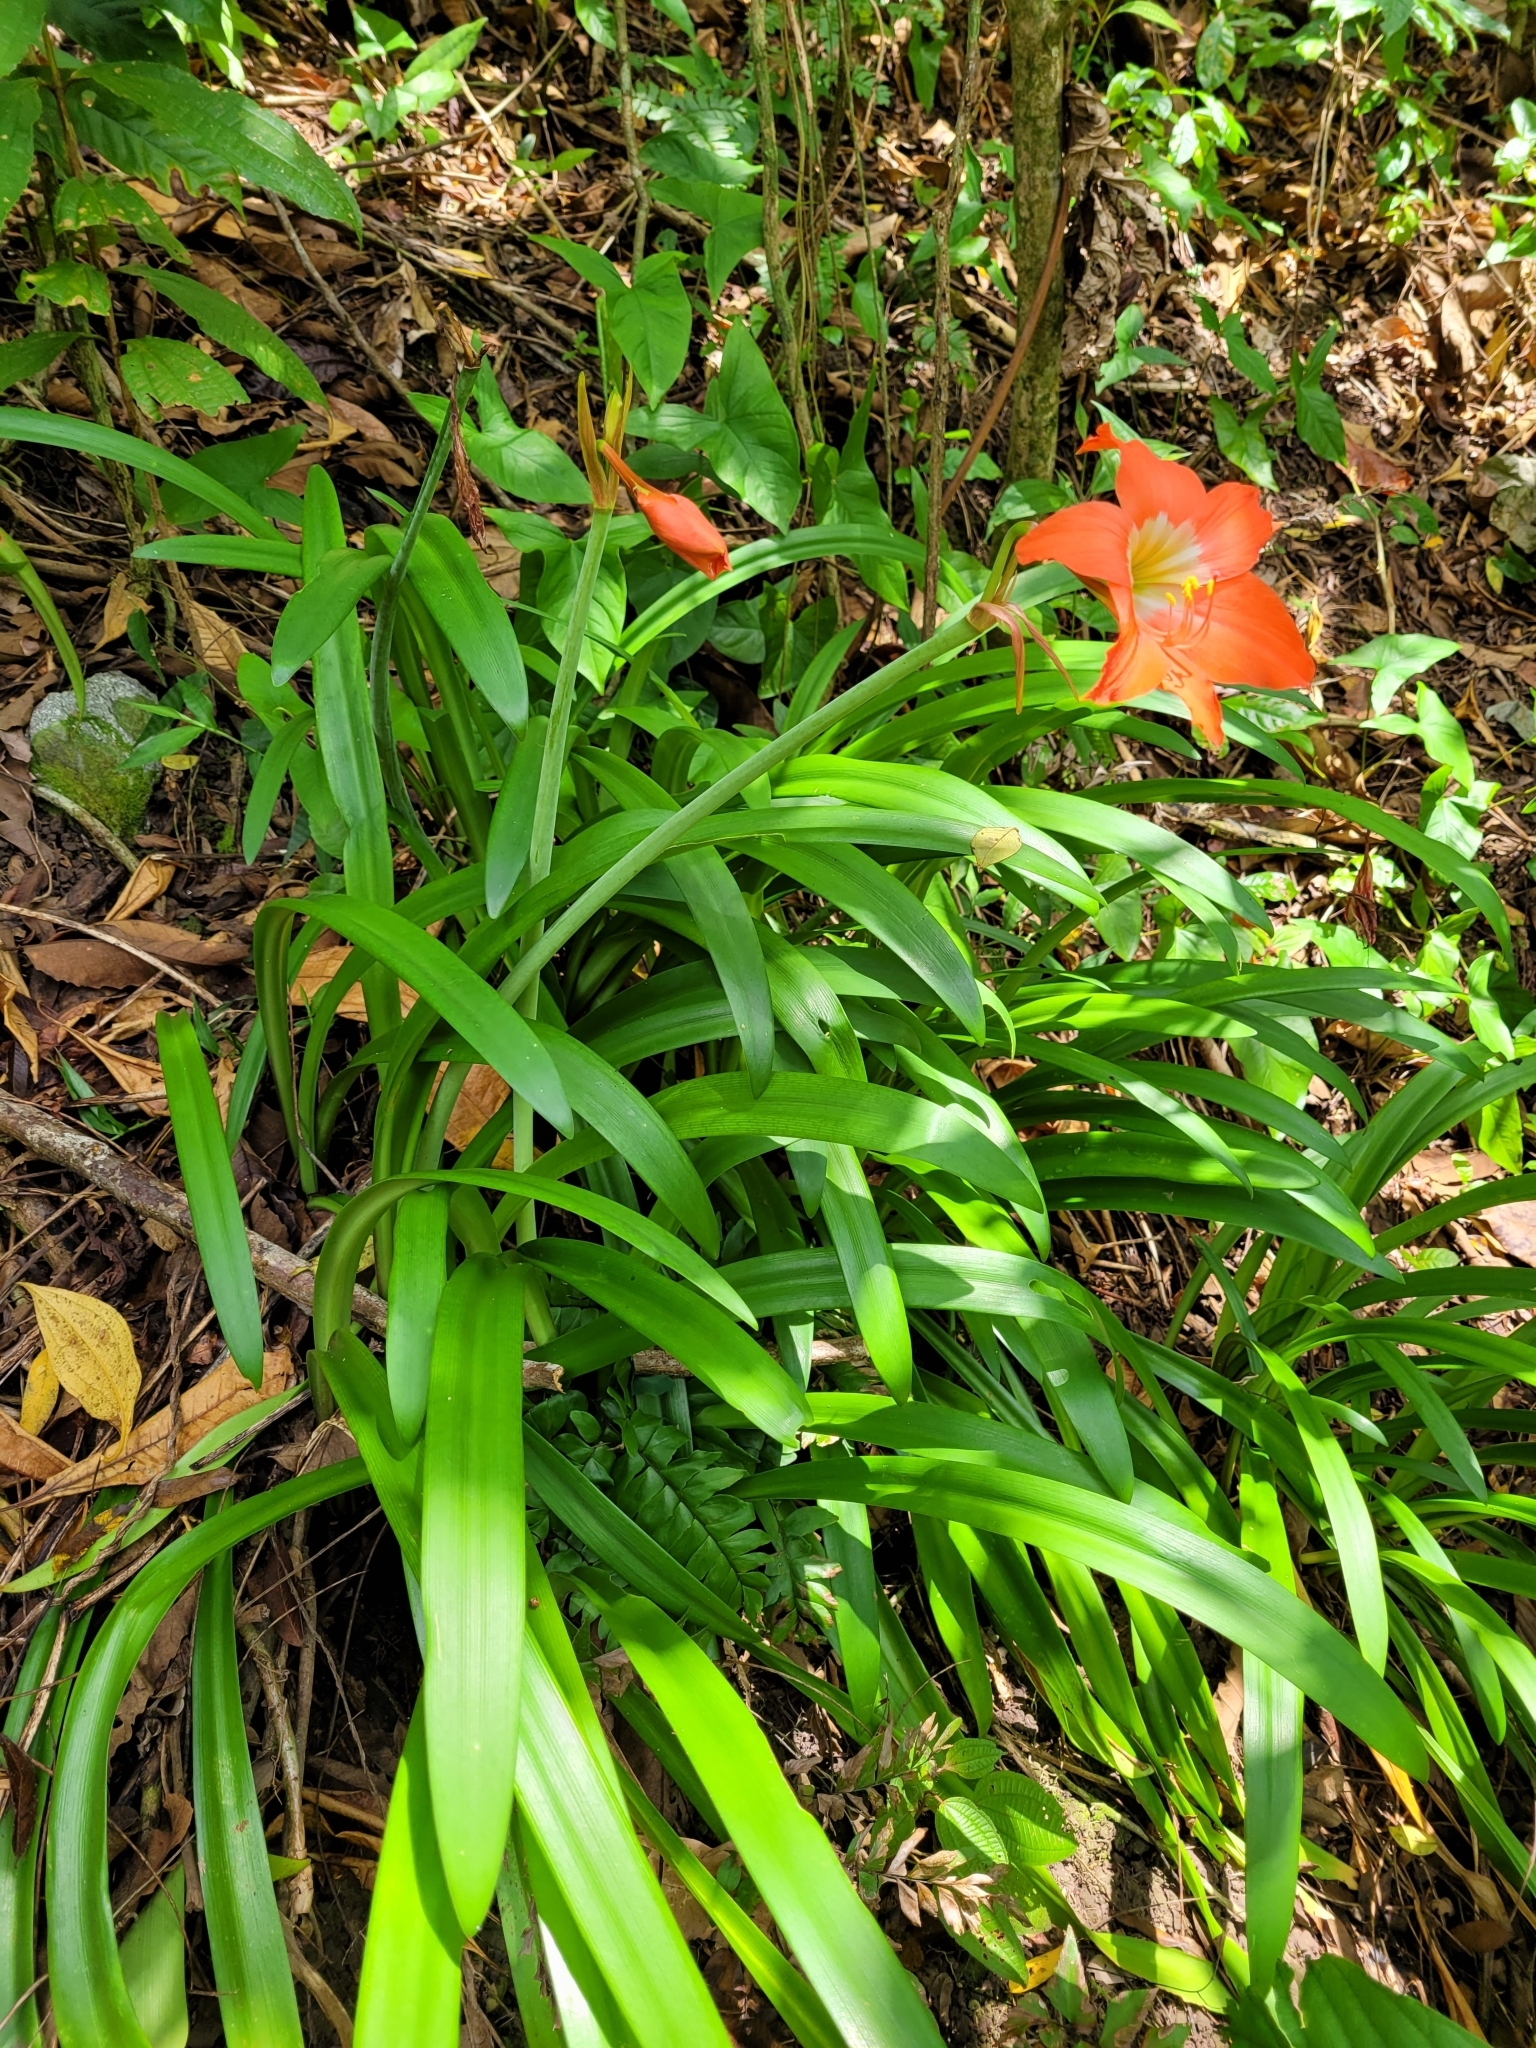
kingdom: Plantae
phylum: Tracheophyta
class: Liliopsida
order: Asparagales
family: Amaryllidaceae
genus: Hippeastrum
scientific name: Hippeastrum puniceum
